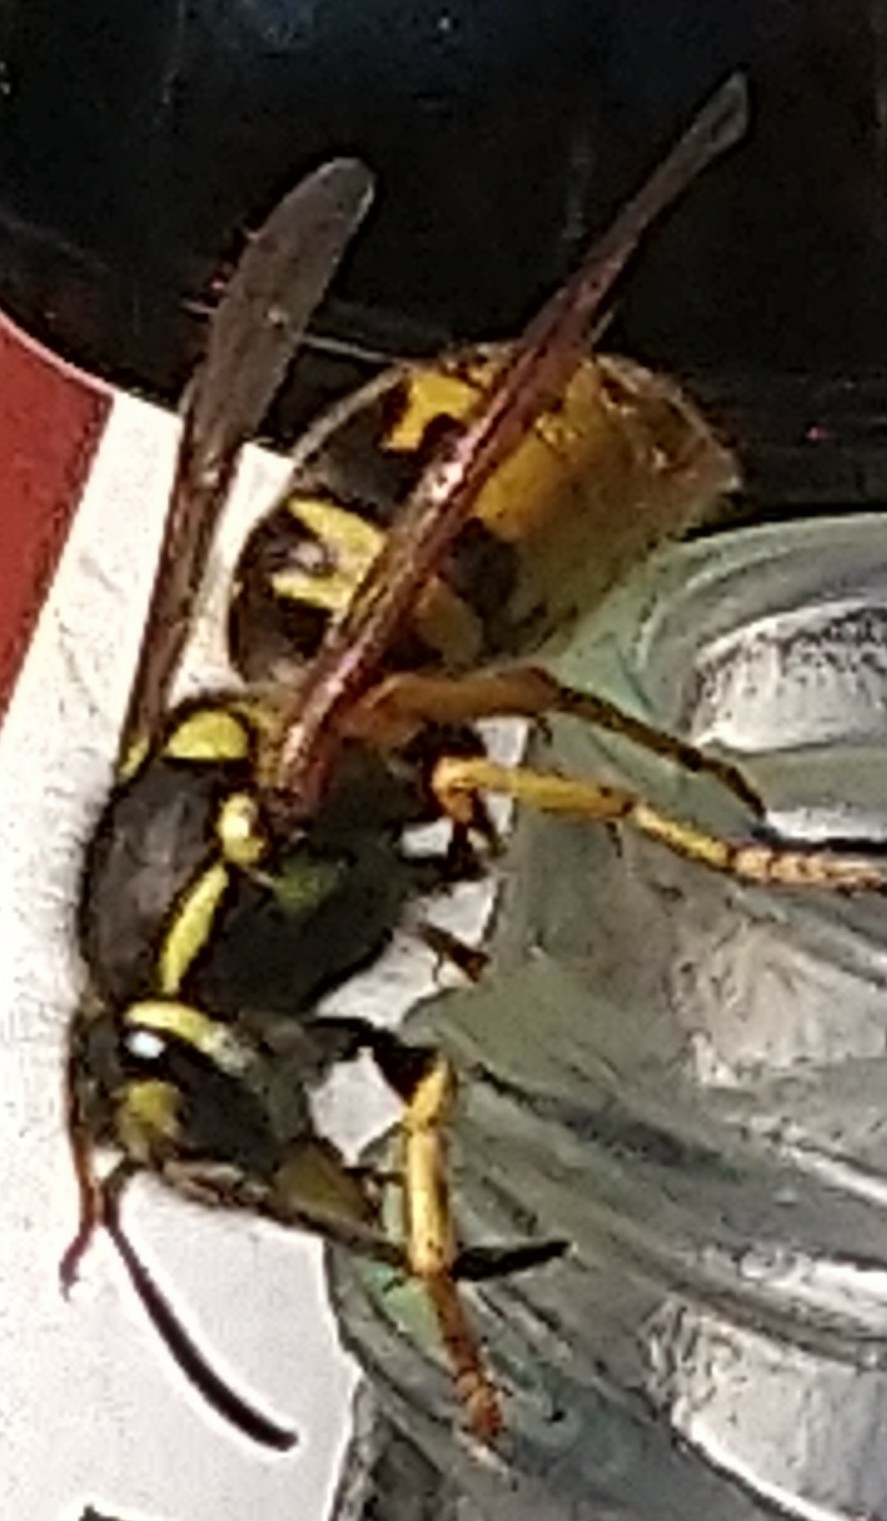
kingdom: Animalia
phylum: Arthropoda
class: Insecta
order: Hymenoptera
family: Vespidae
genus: Vespula
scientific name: Vespula germanica
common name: German wasp
